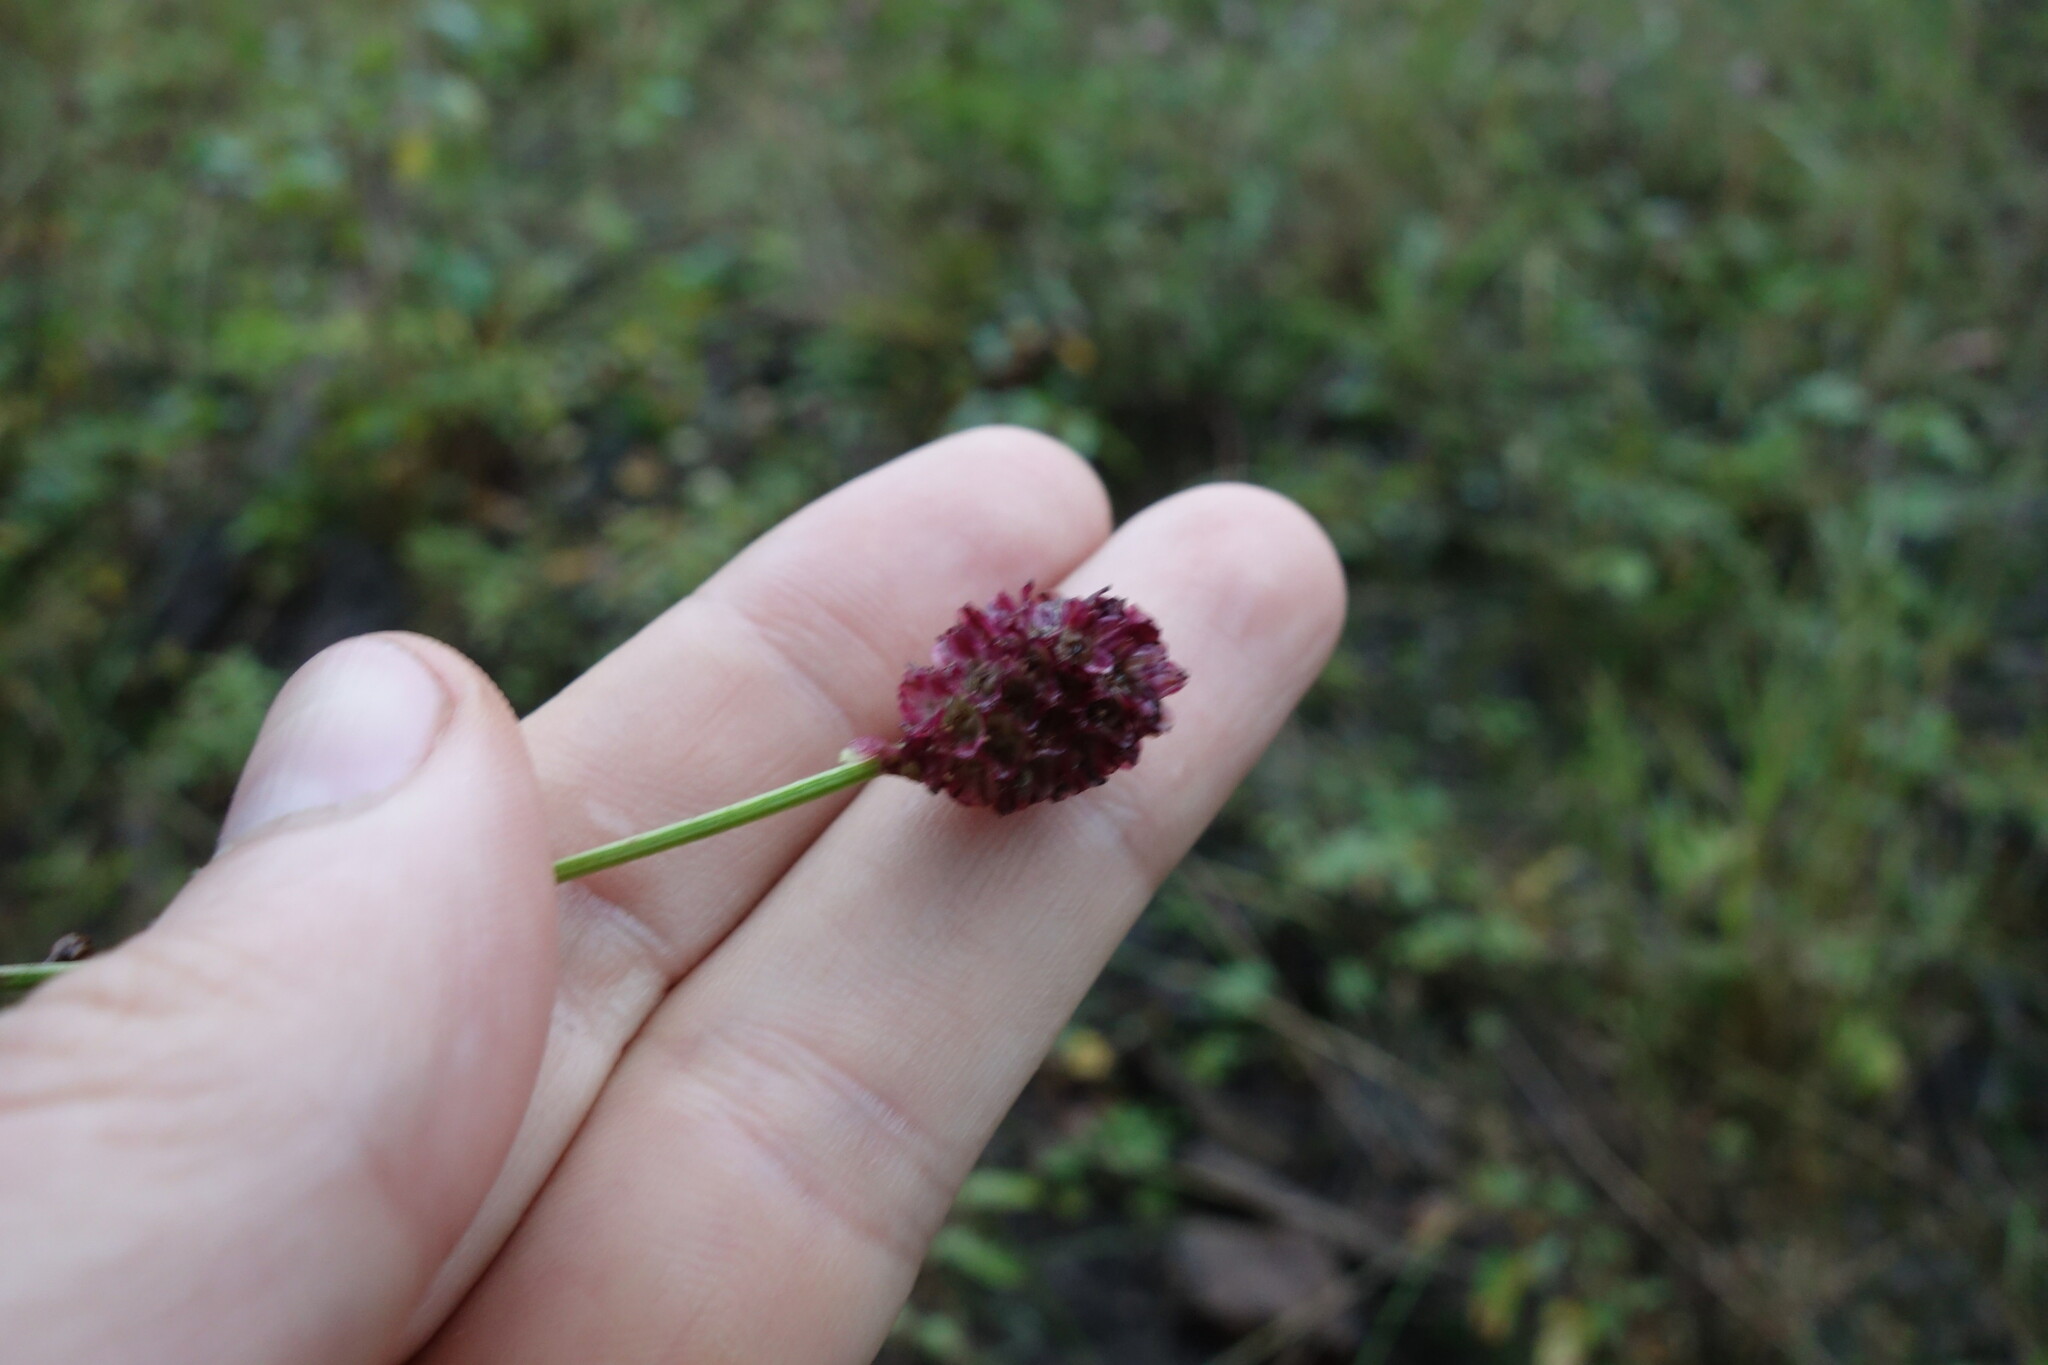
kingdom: Plantae
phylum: Tracheophyta
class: Magnoliopsida
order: Rosales
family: Rosaceae
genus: Sanguisorba
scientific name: Sanguisorba officinalis
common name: Great burnet
